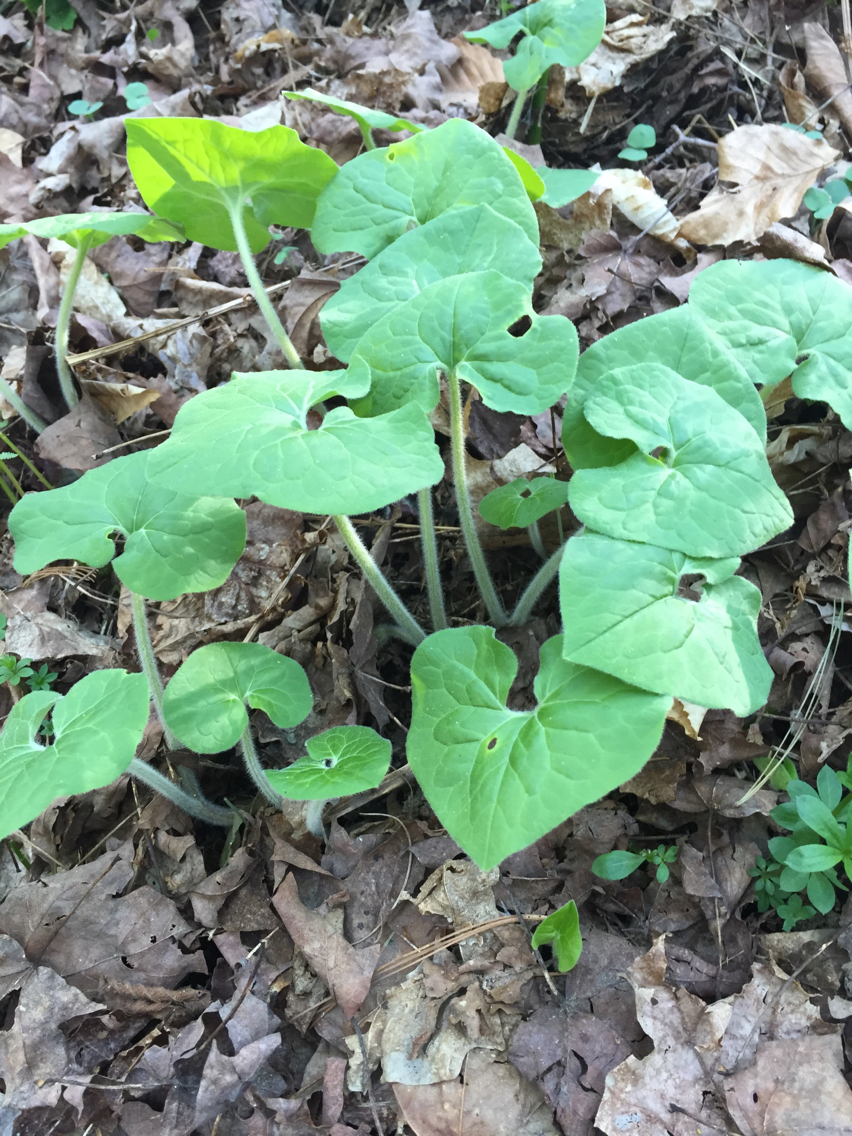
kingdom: Plantae
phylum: Tracheophyta
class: Magnoliopsida
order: Piperales
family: Aristolochiaceae
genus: Asarum
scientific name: Asarum canadense
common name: Wild ginger
